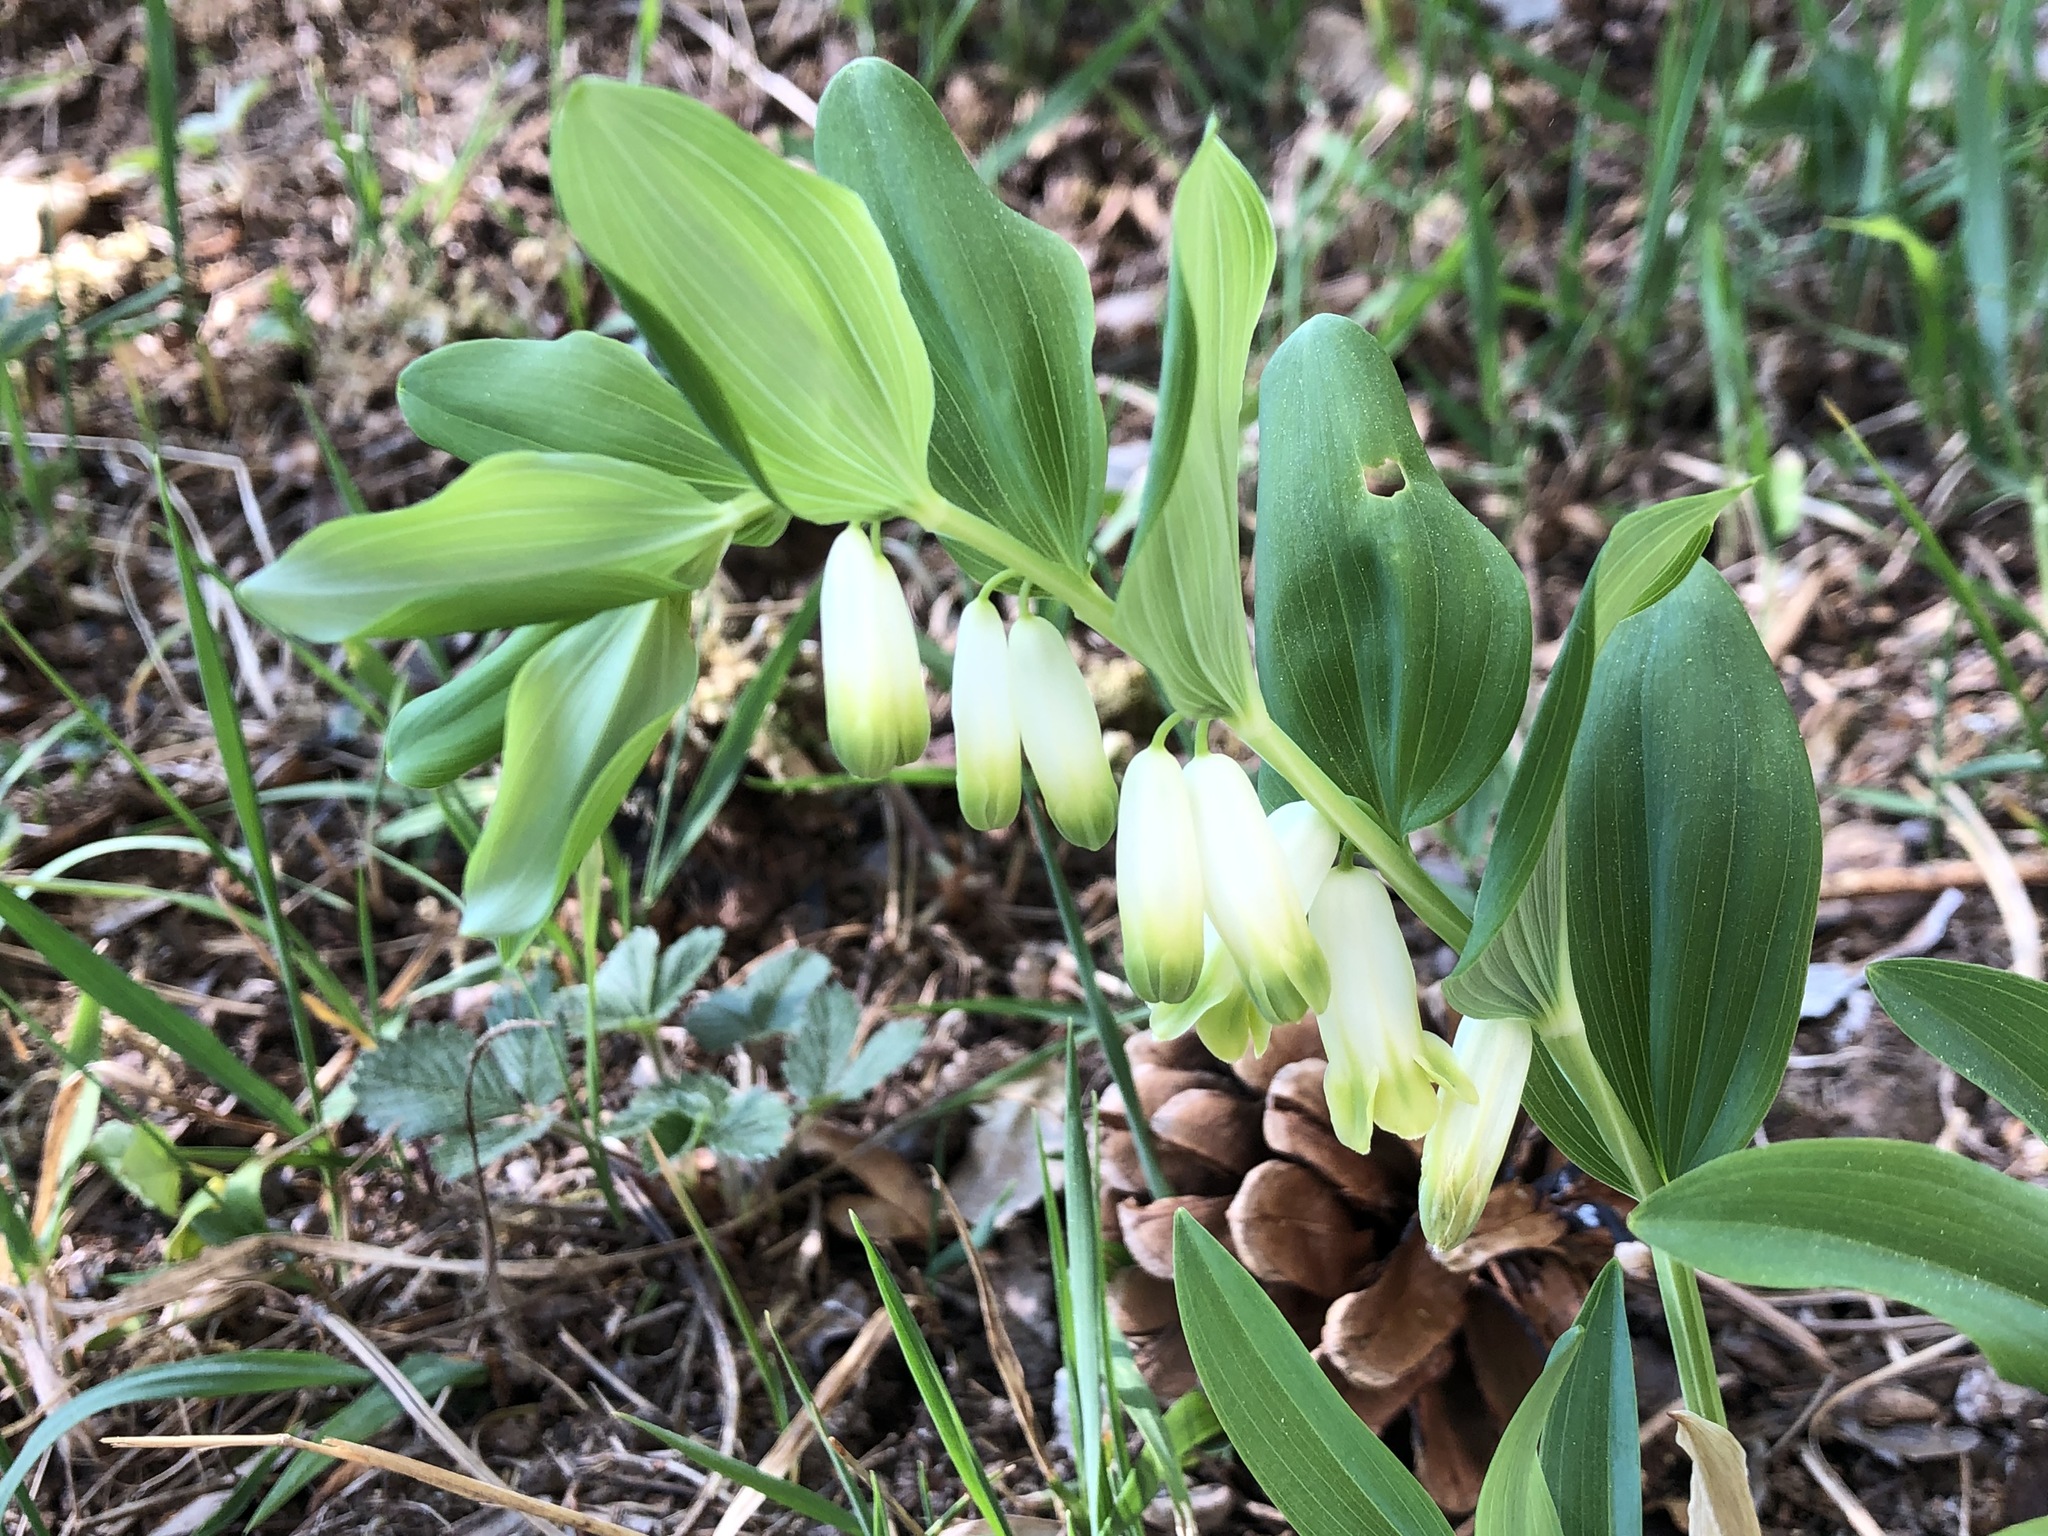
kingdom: Plantae
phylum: Tracheophyta
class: Liliopsida
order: Asparagales
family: Asparagaceae
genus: Polygonatum
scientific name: Polygonatum odoratum
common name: Angular solomon's-seal
